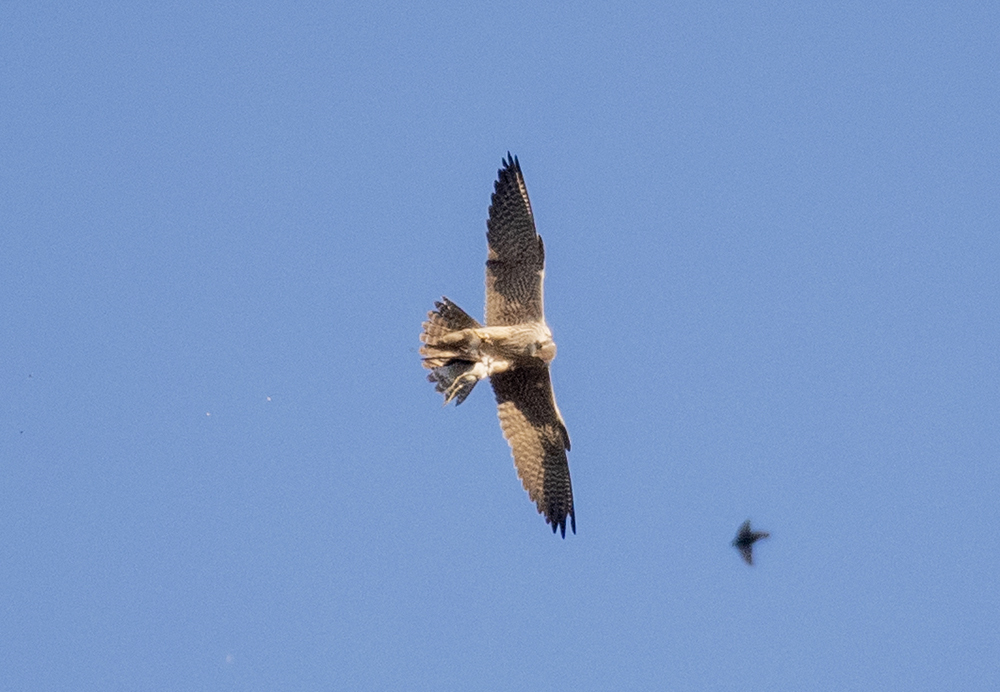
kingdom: Animalia
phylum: Chordata
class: Aves
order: Falconiformes
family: Falconidae
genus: Falco
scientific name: Falco peregrinus
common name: Peregrine falcon
